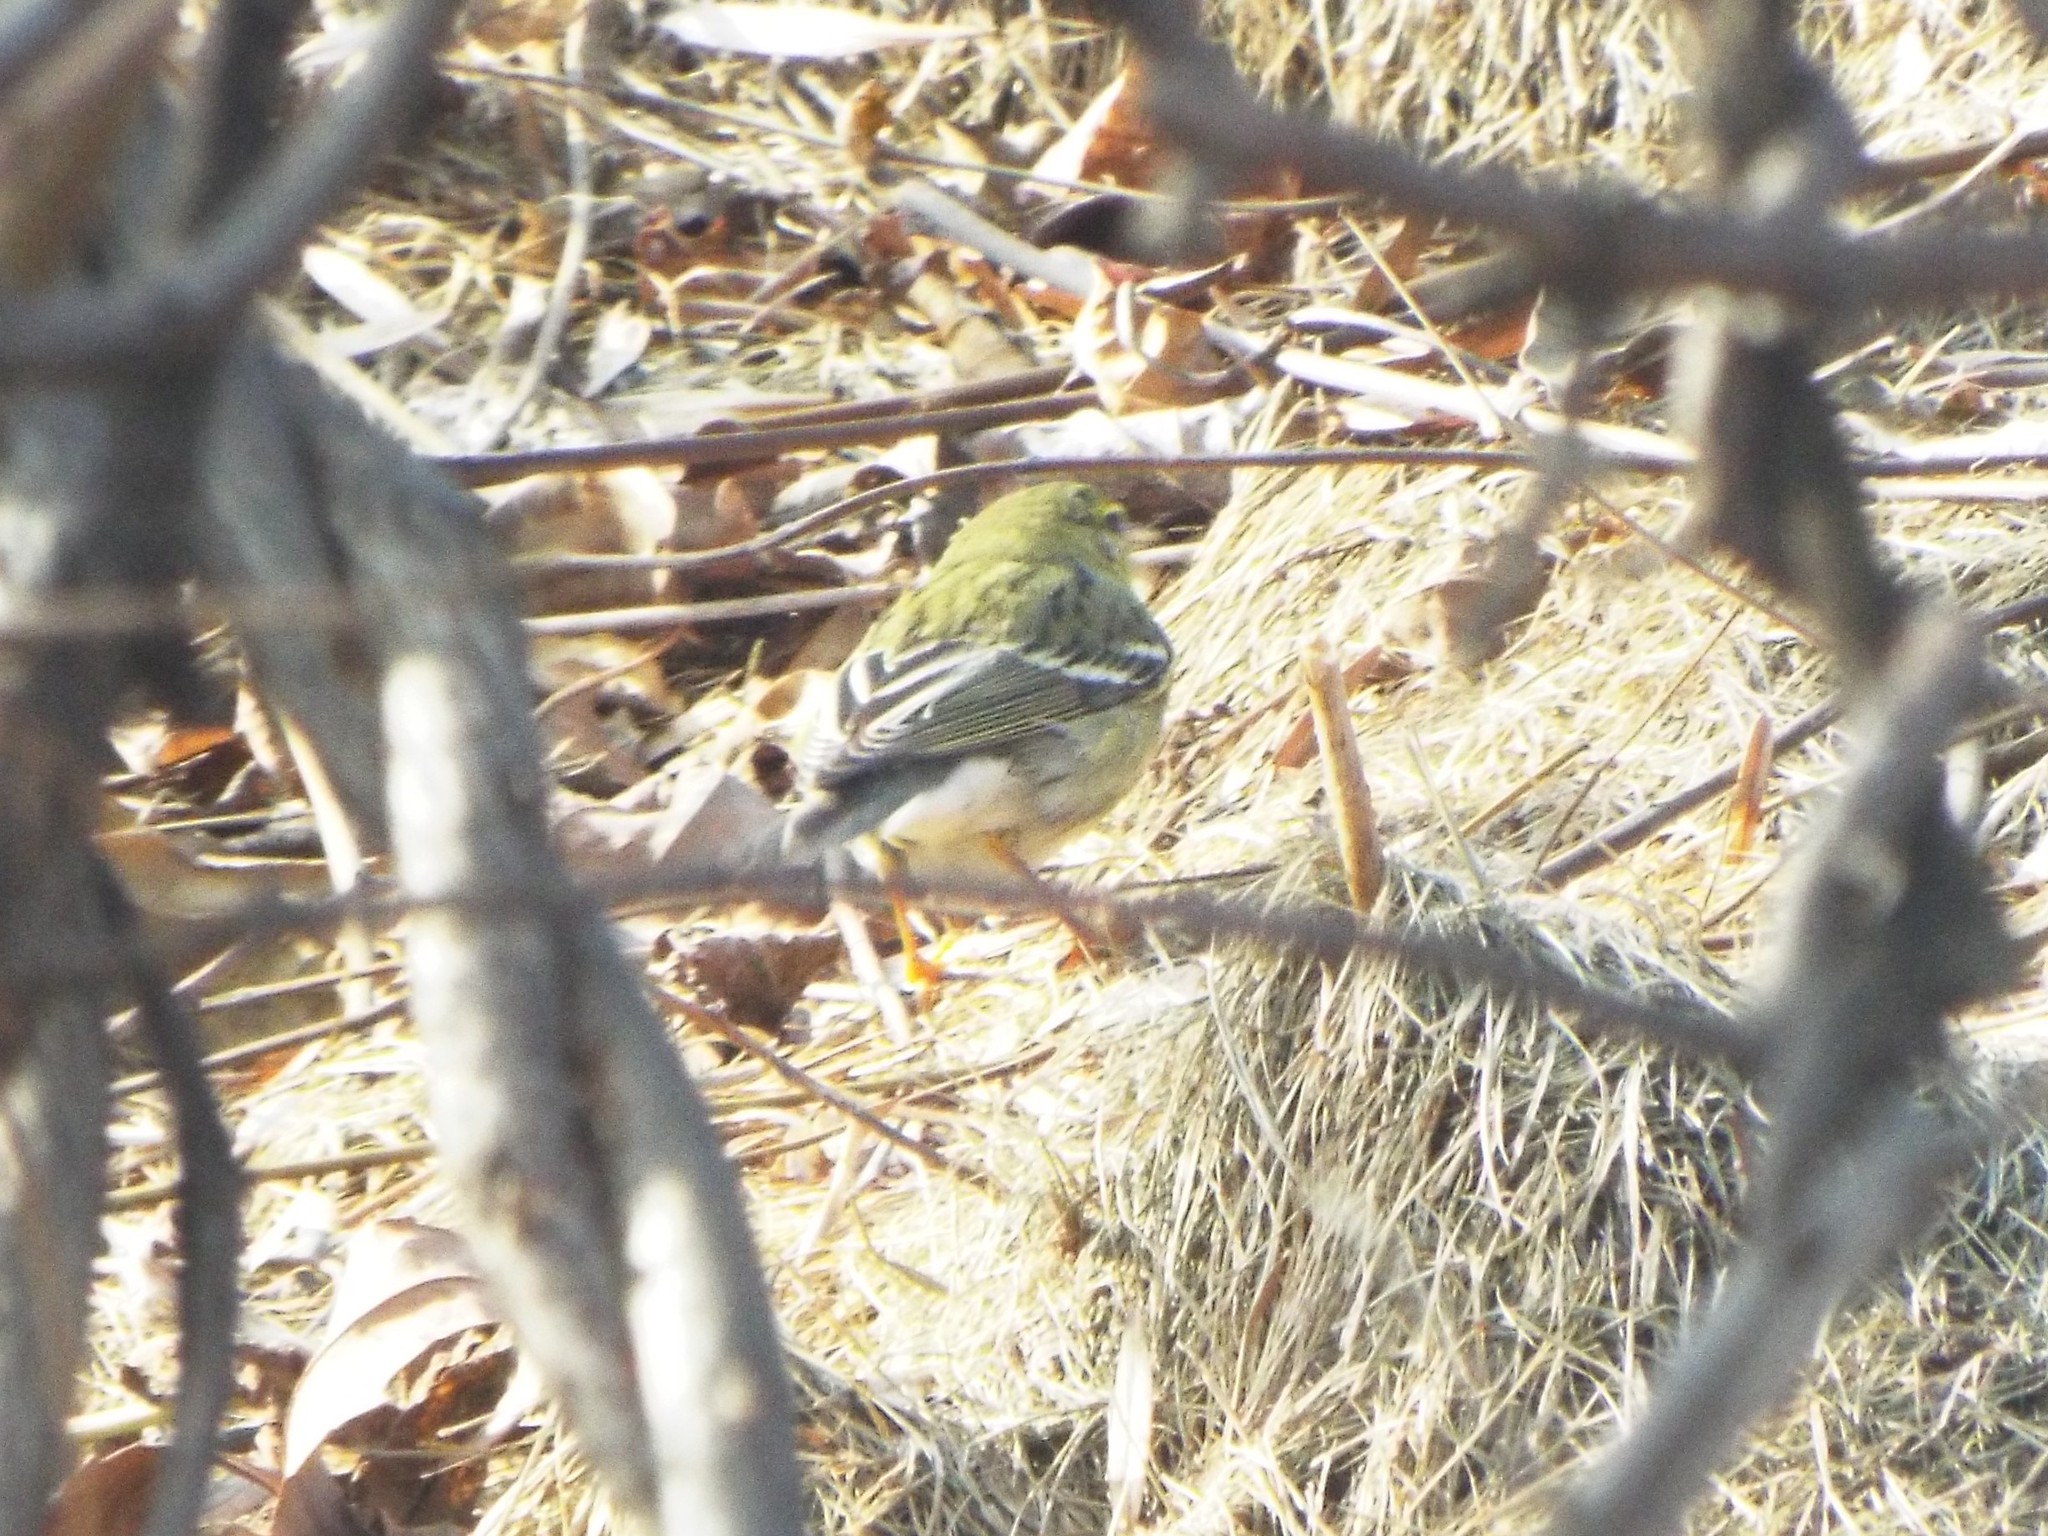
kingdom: Animalia
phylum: Chordata
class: Aves
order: Passeriformes
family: Parulidae
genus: Setophaga
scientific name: Setophaga striata
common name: Blackpoll warbler
